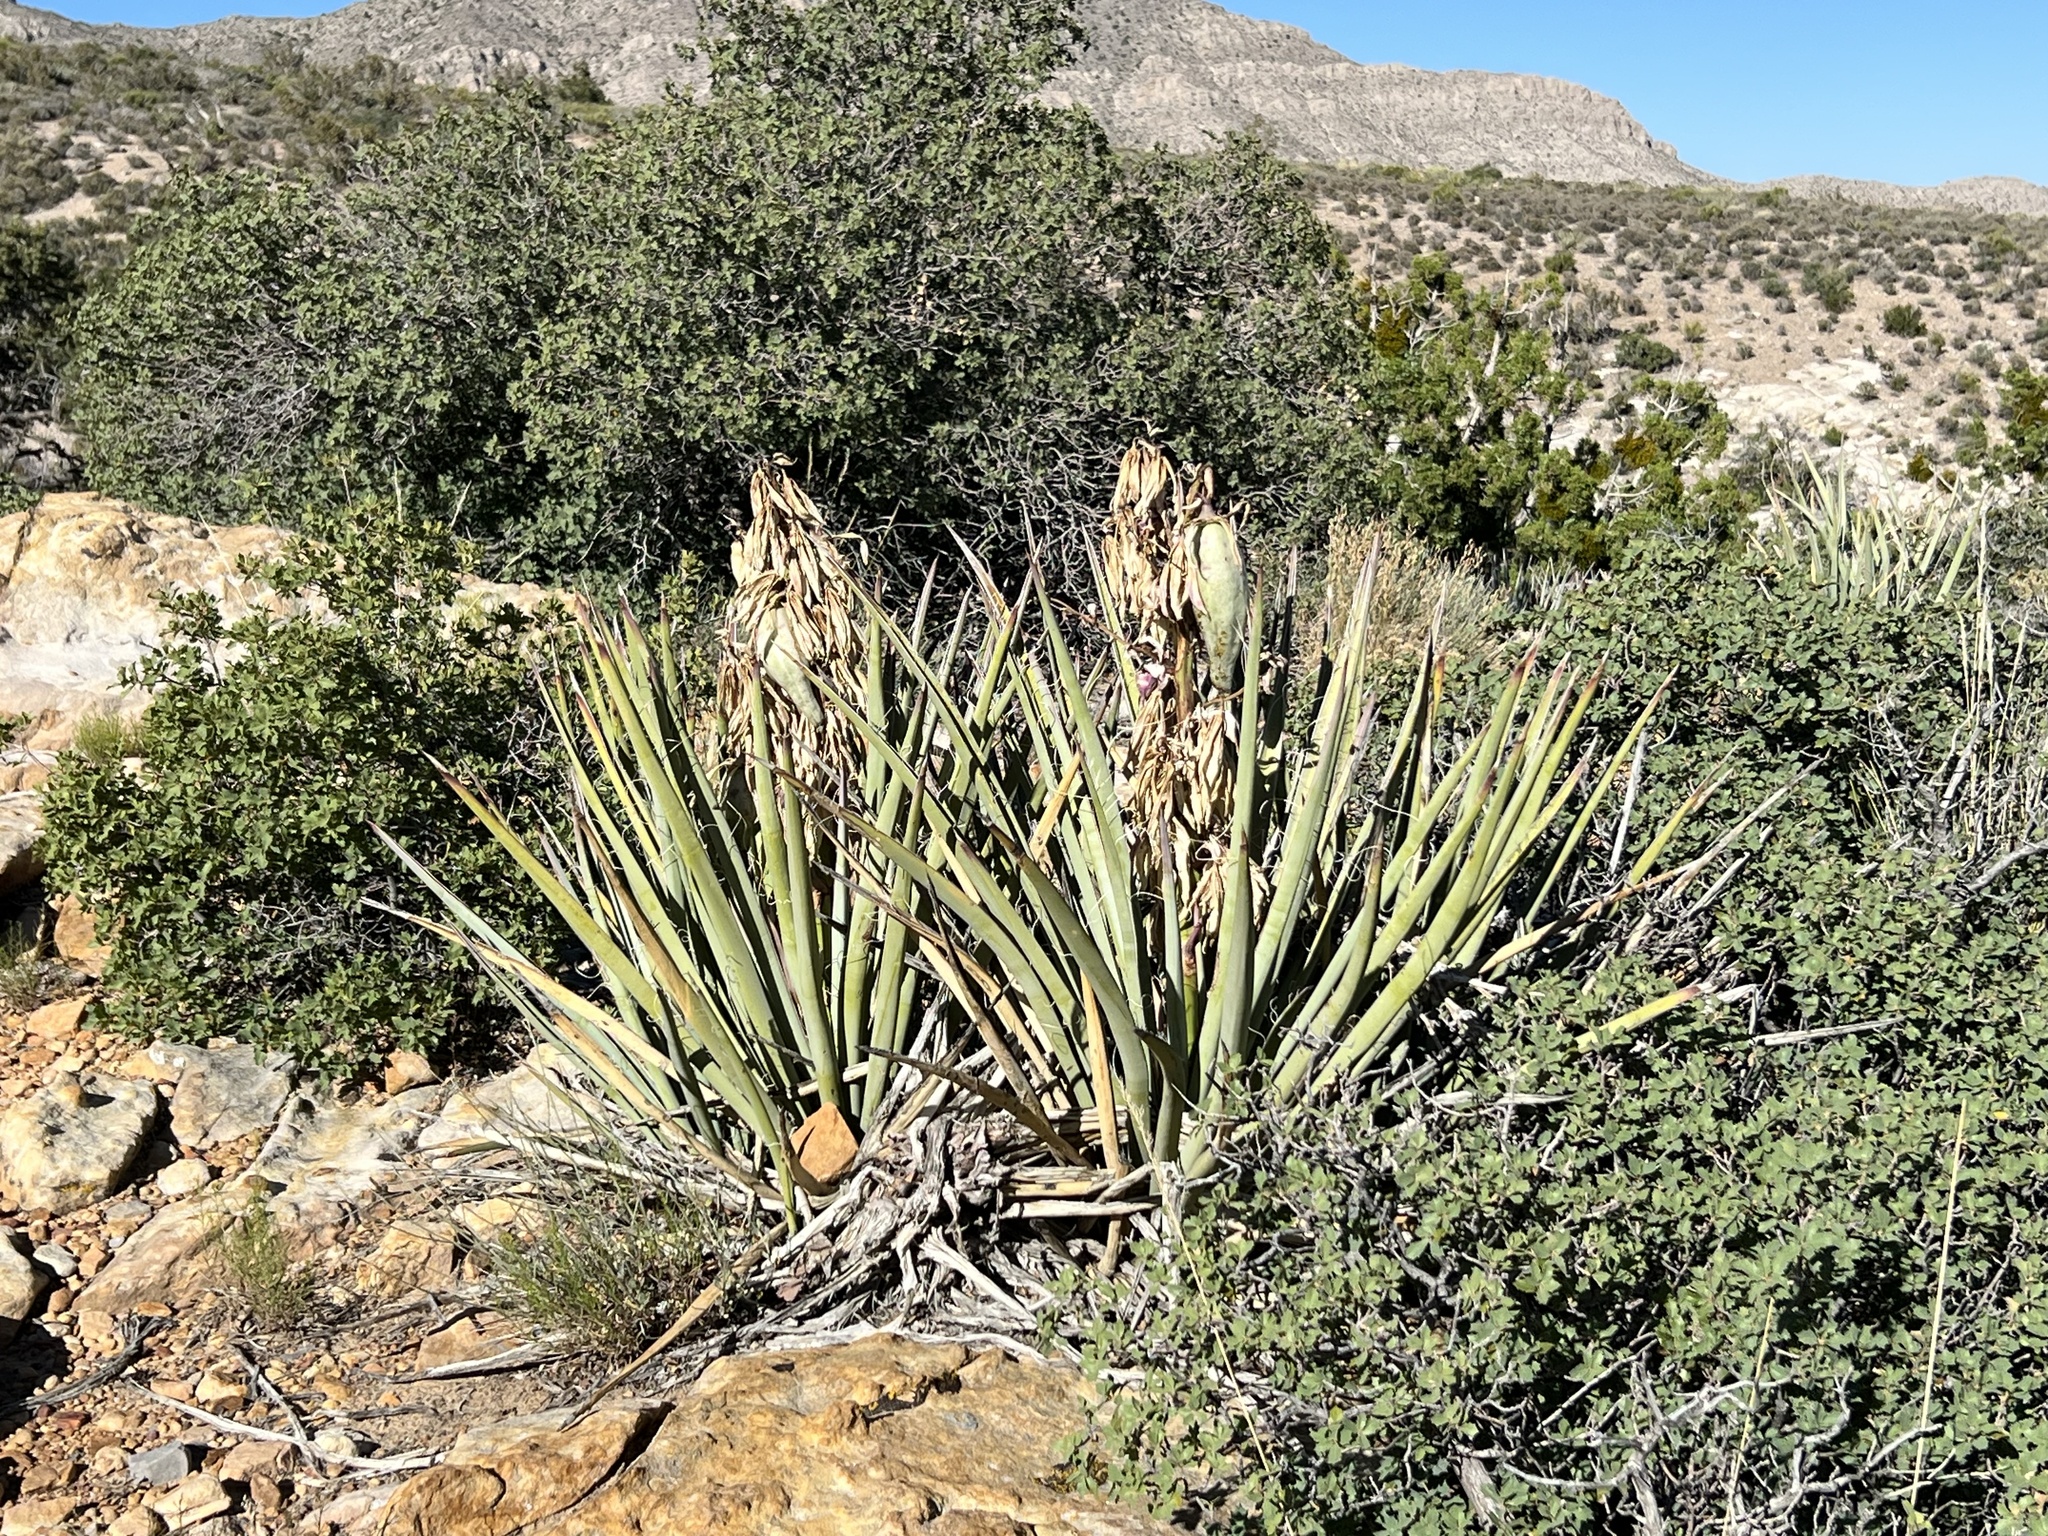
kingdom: Plantae
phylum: Tracheophyta
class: Liliopsida
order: Asparagales
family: Asparagaceae
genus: Yucca
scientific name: Yucca baccata
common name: Banana yucca
